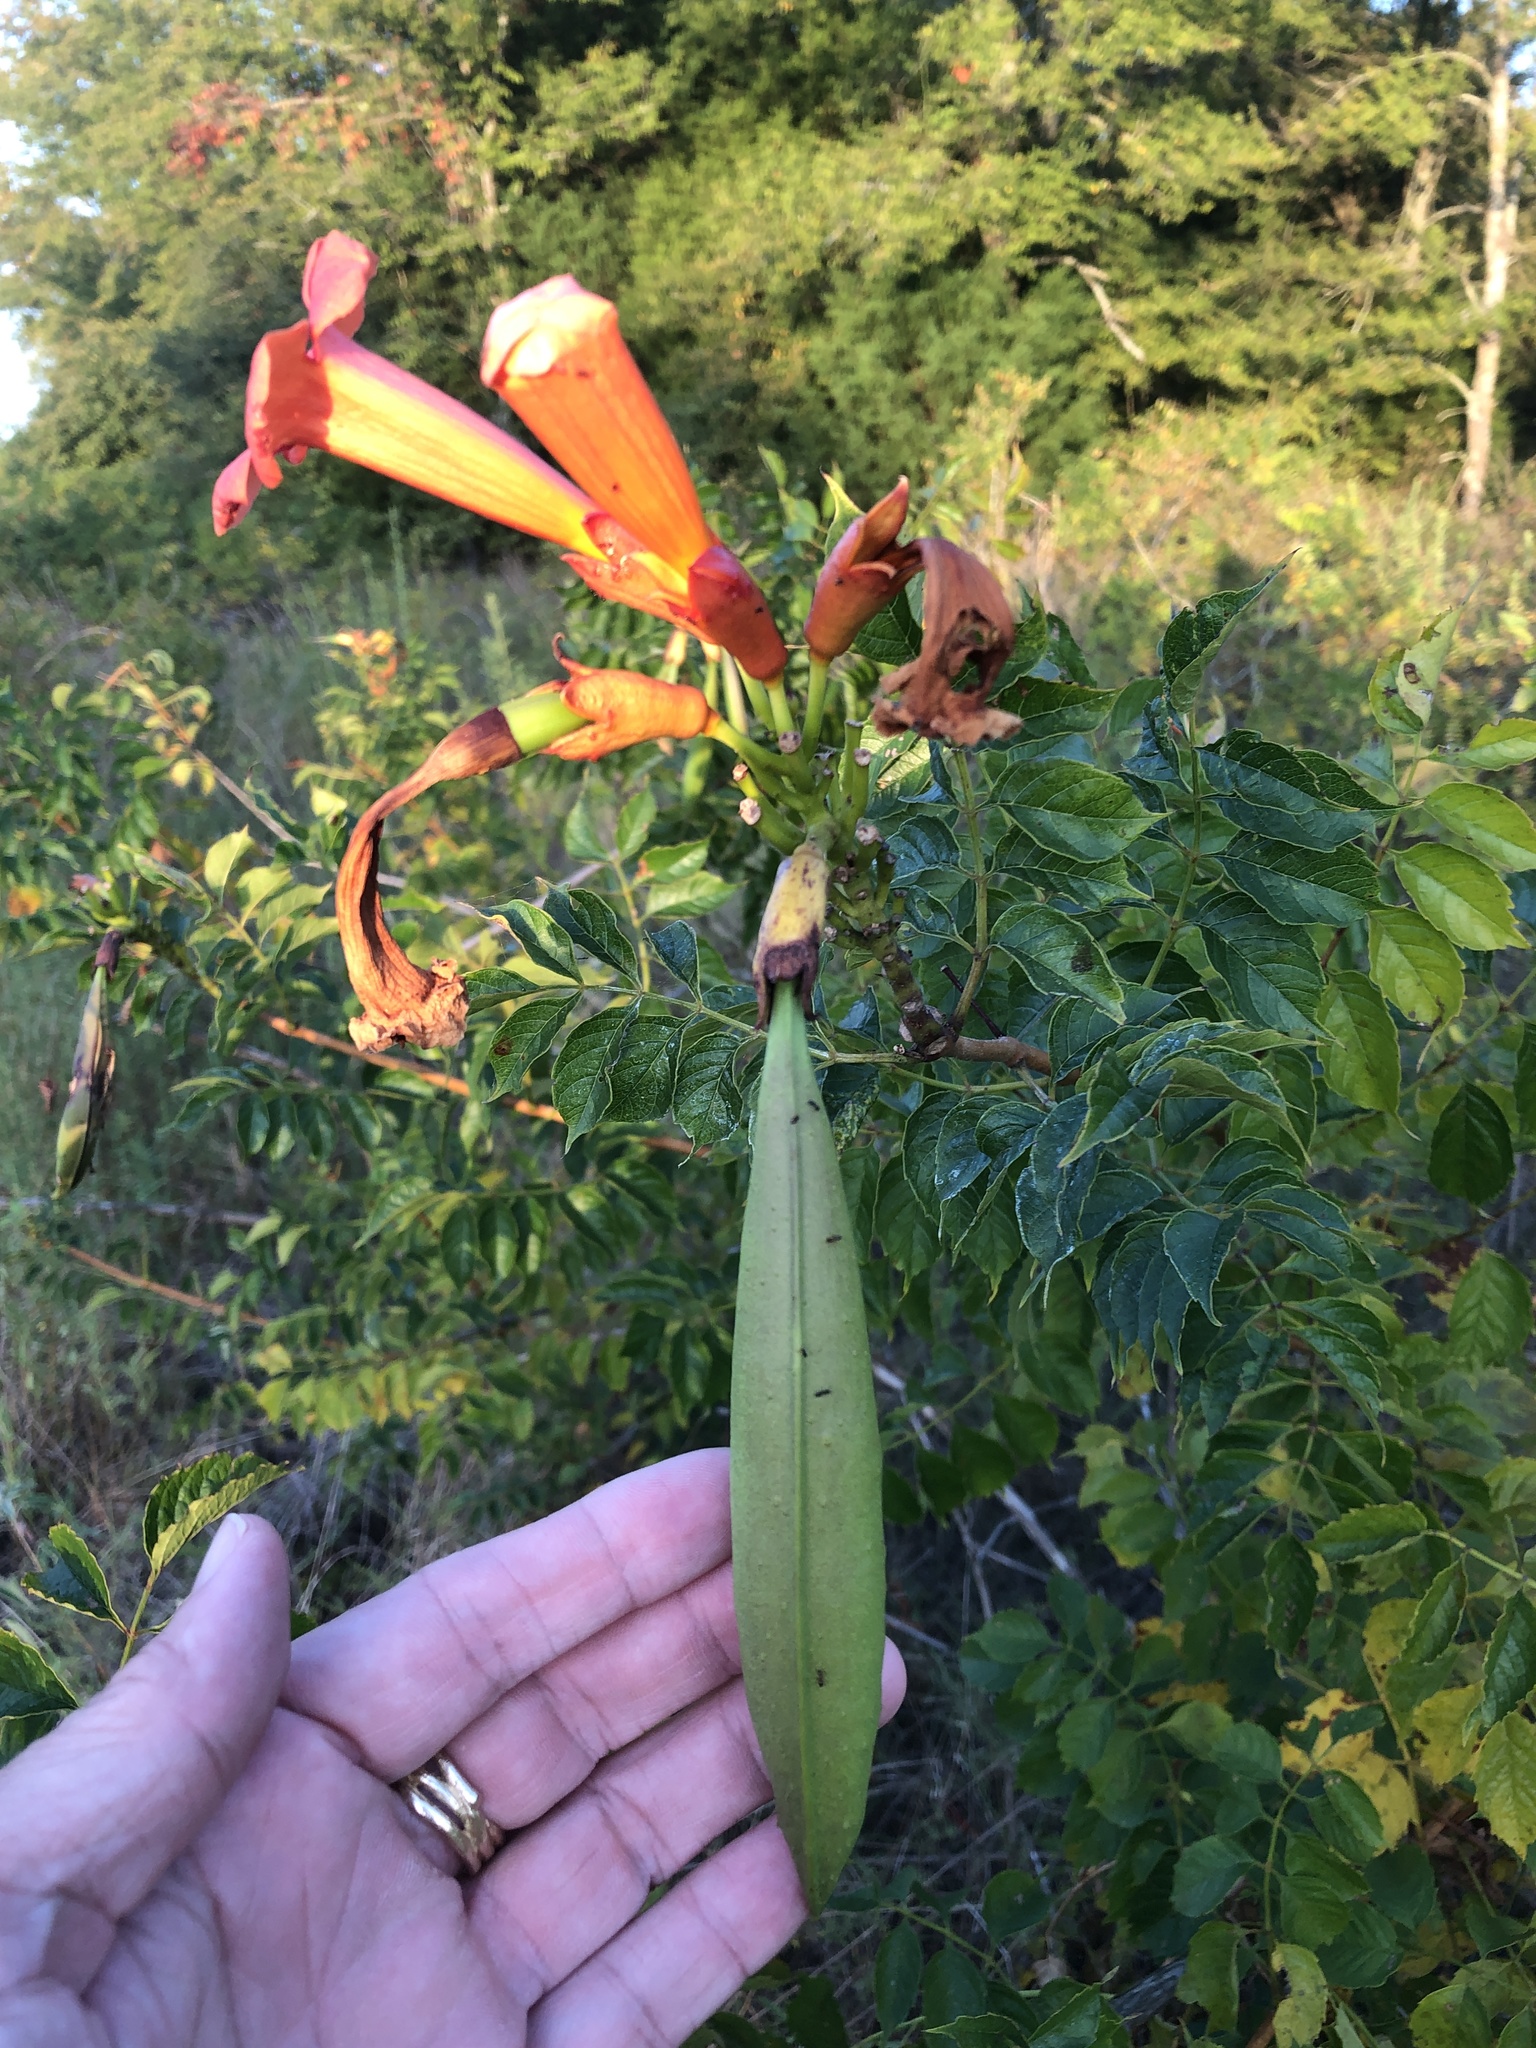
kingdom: Plantae
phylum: Tracheophyta
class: Magnoliopsida
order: Lamiales
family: Bignoniaceae
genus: Campsis
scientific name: Campsis radicans
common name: Trumpet-creeper
